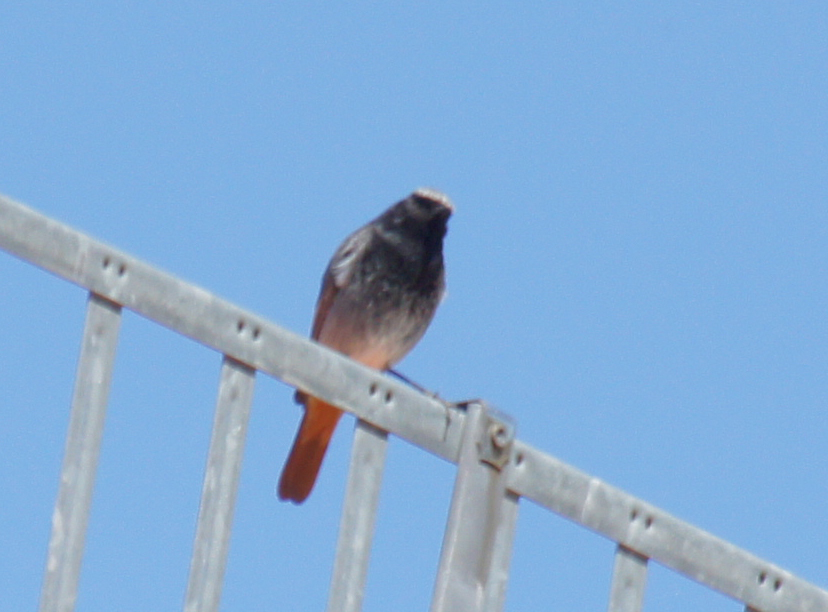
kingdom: Animalia
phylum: Chordata
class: Aves
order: Passeriformes
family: Muscicapidae
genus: Phoenicurus
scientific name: Phoenicurus ochruros
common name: Black redstart
